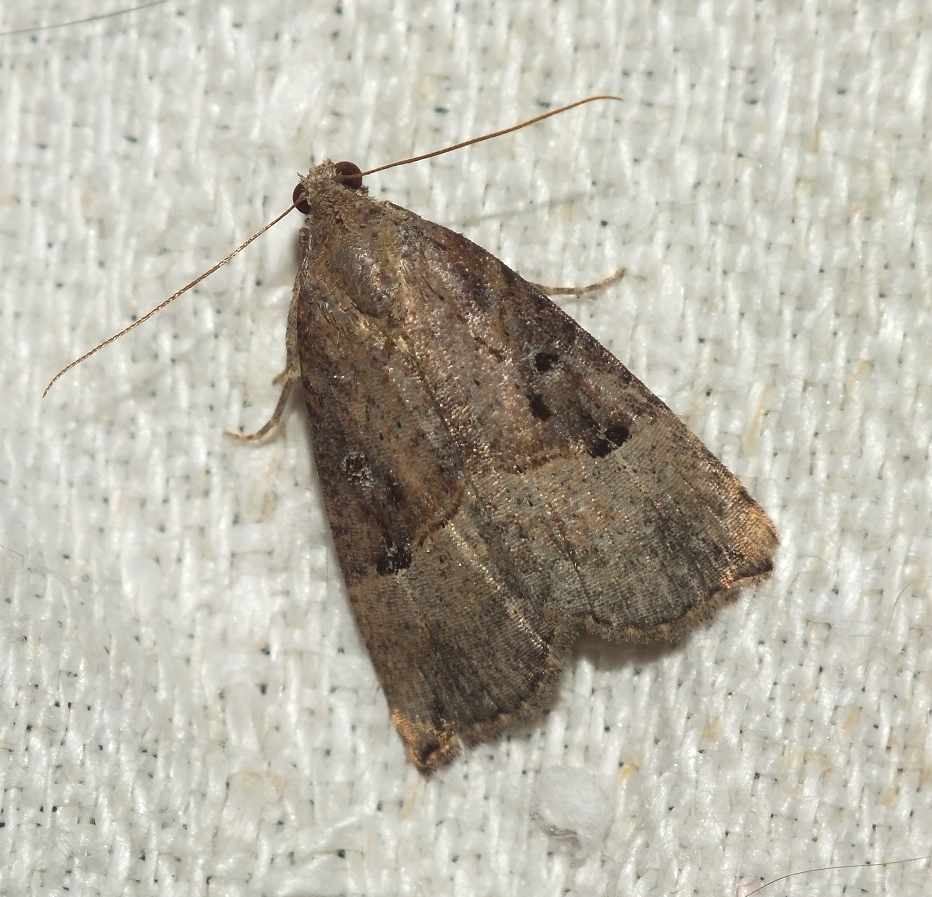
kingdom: Animalia
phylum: Arthropoda
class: Insecta
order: Lepidoptera
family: Erebidae
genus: Hypena
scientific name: Hypena rostralis
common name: Buttoned snout
